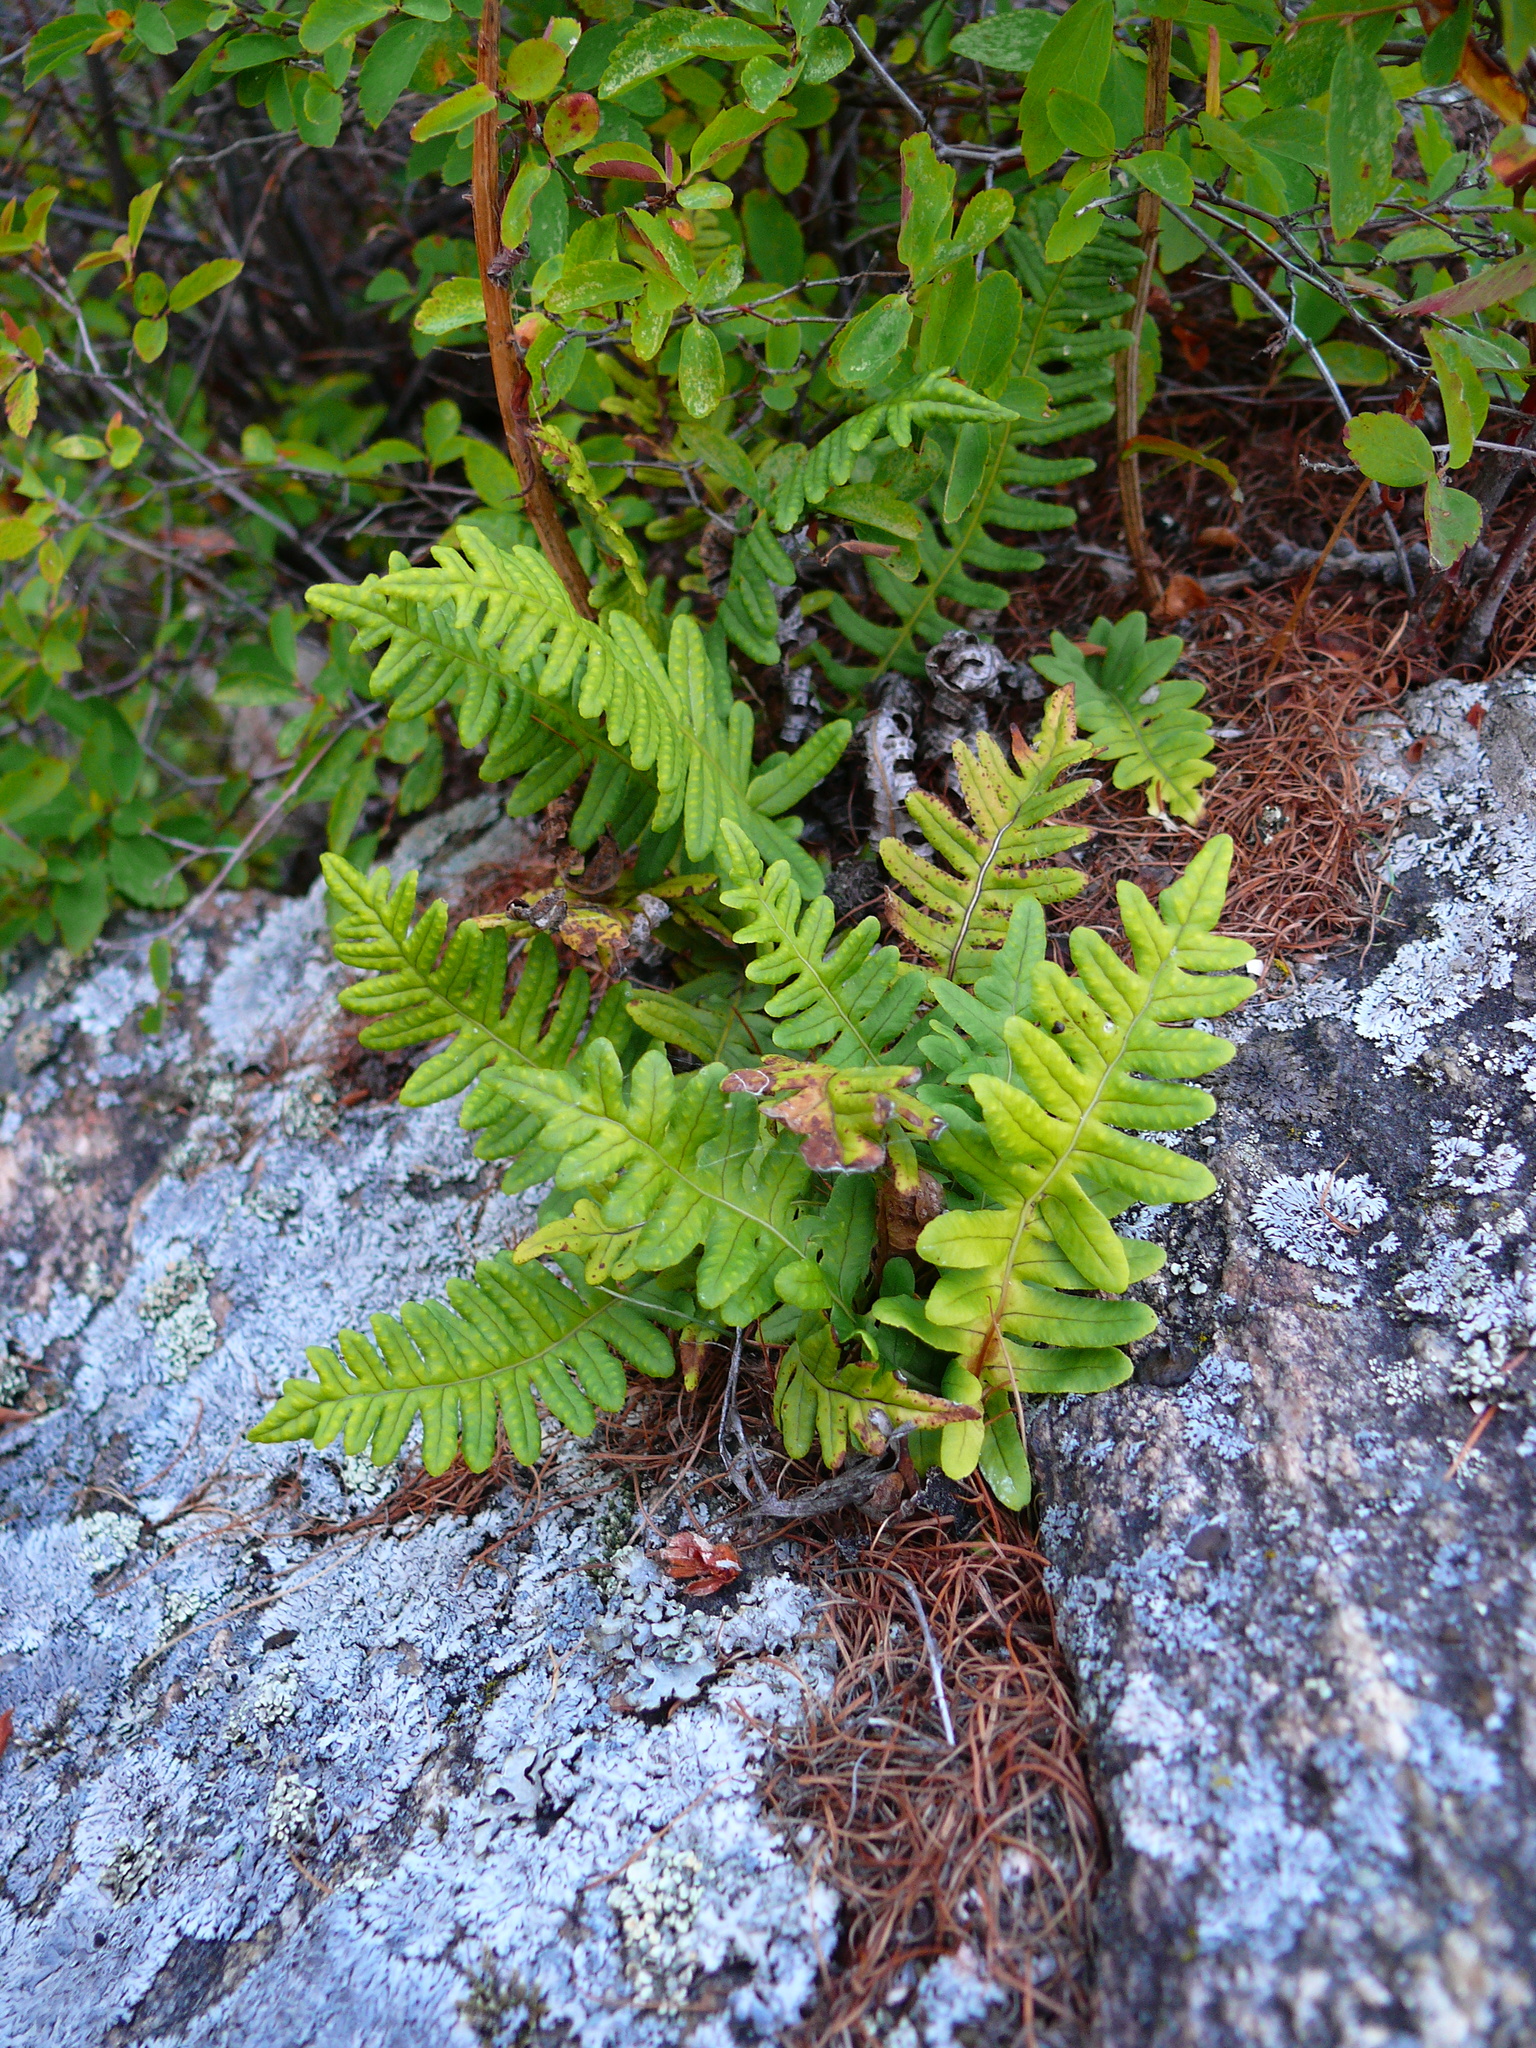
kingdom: Plantae
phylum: Tracheophyta
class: Polypodiopsida
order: Polypodiales
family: Polypodiaceae
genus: Polypodium
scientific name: Polypodium sibiricum
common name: Siberian polypody
